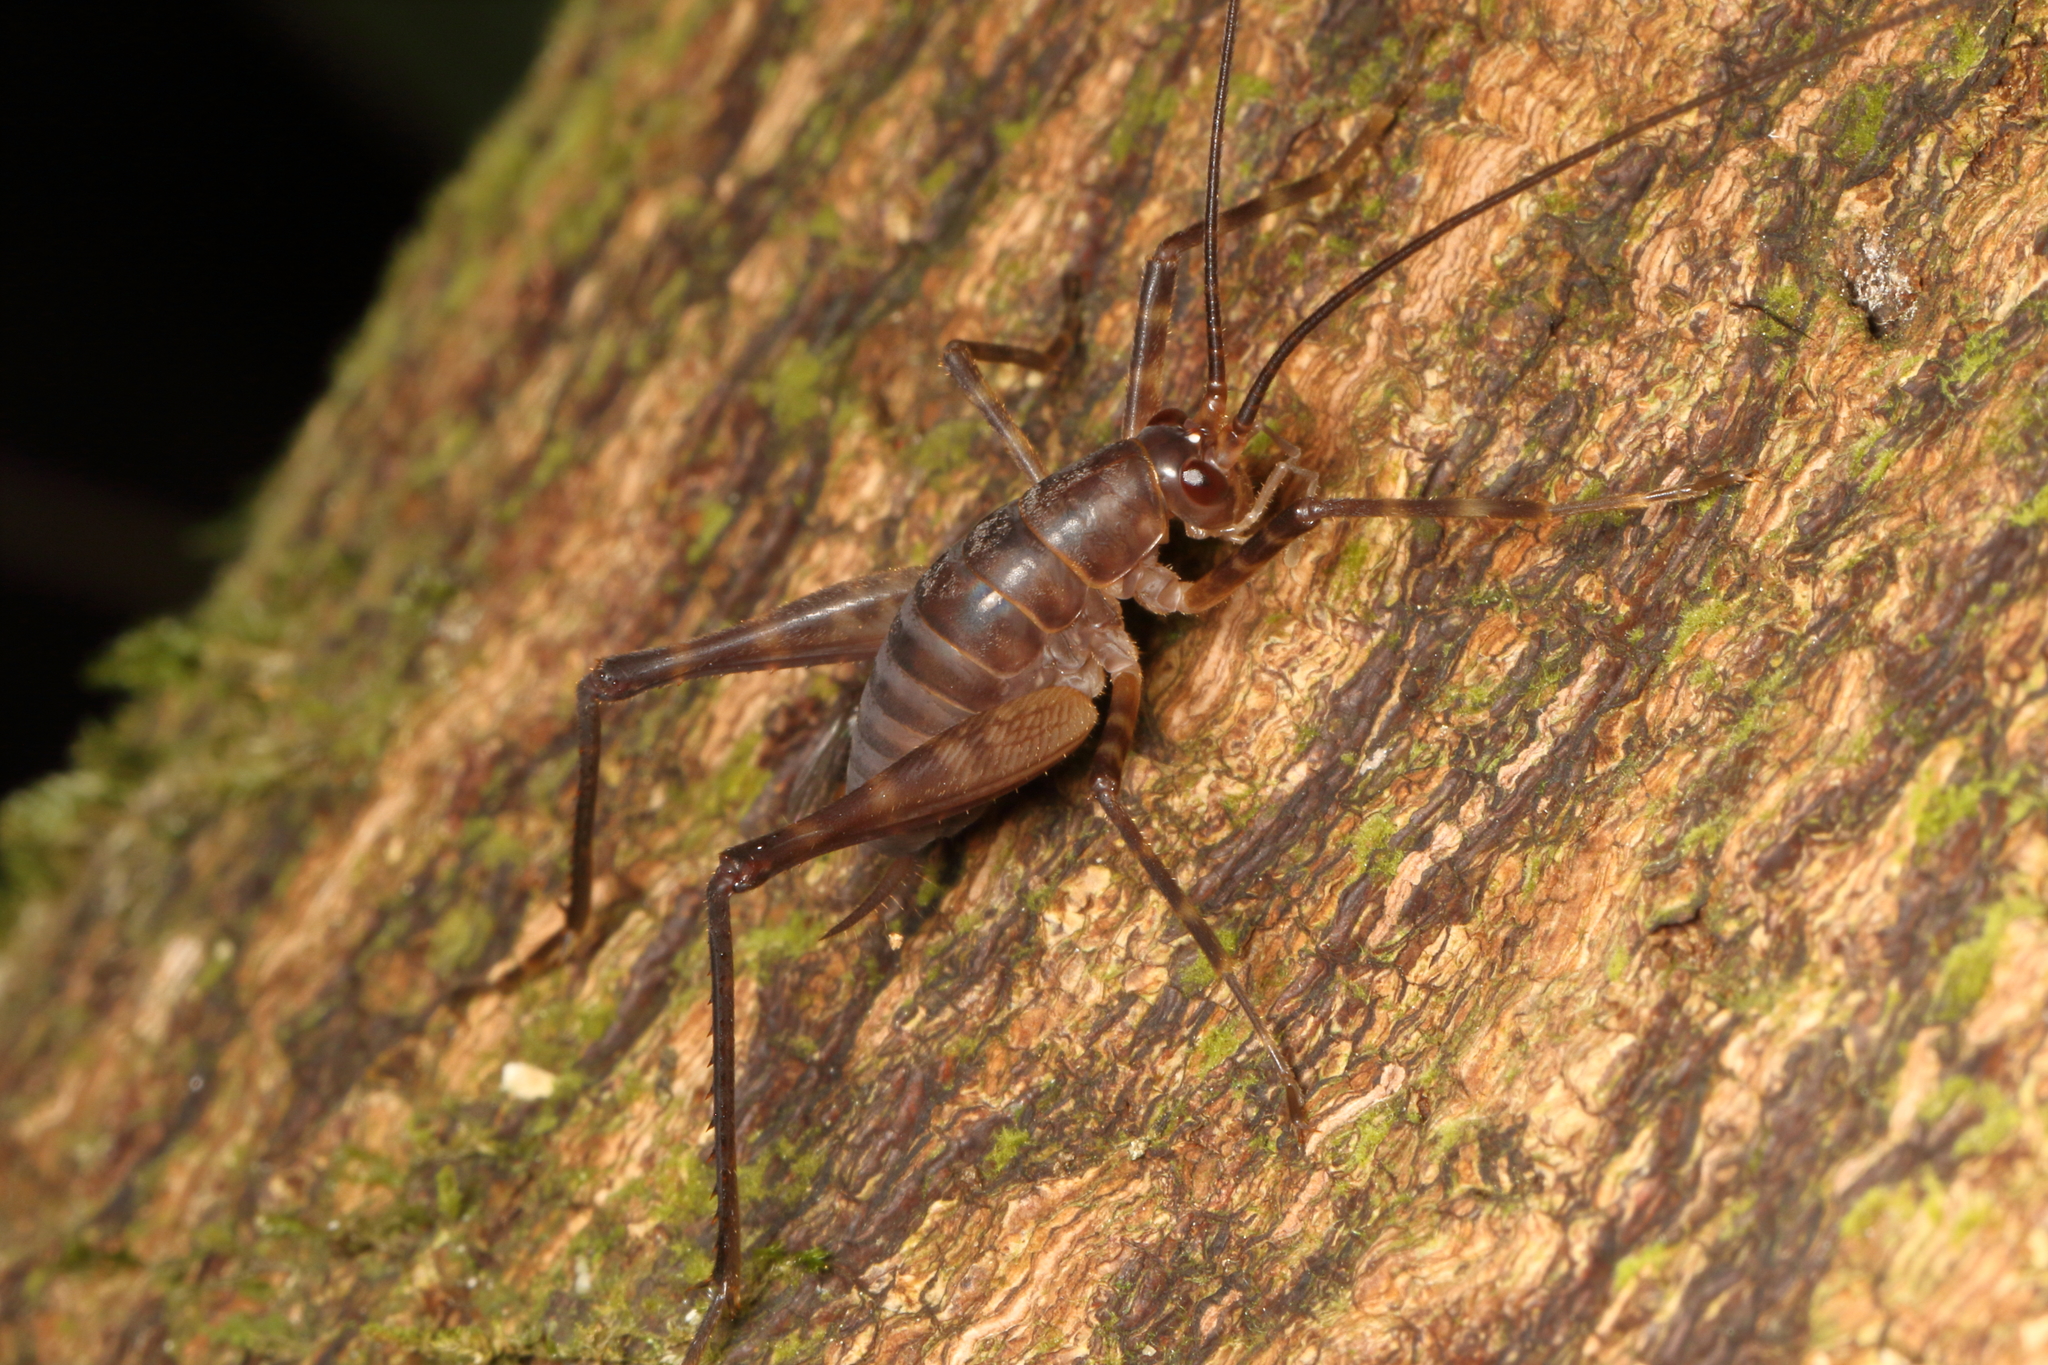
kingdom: Animalia
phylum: Arthropoda
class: Insecta
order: Orthoptera
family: Rhaphidophoridae
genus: Pachyrhamma
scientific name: Pachyrhamma longipes
